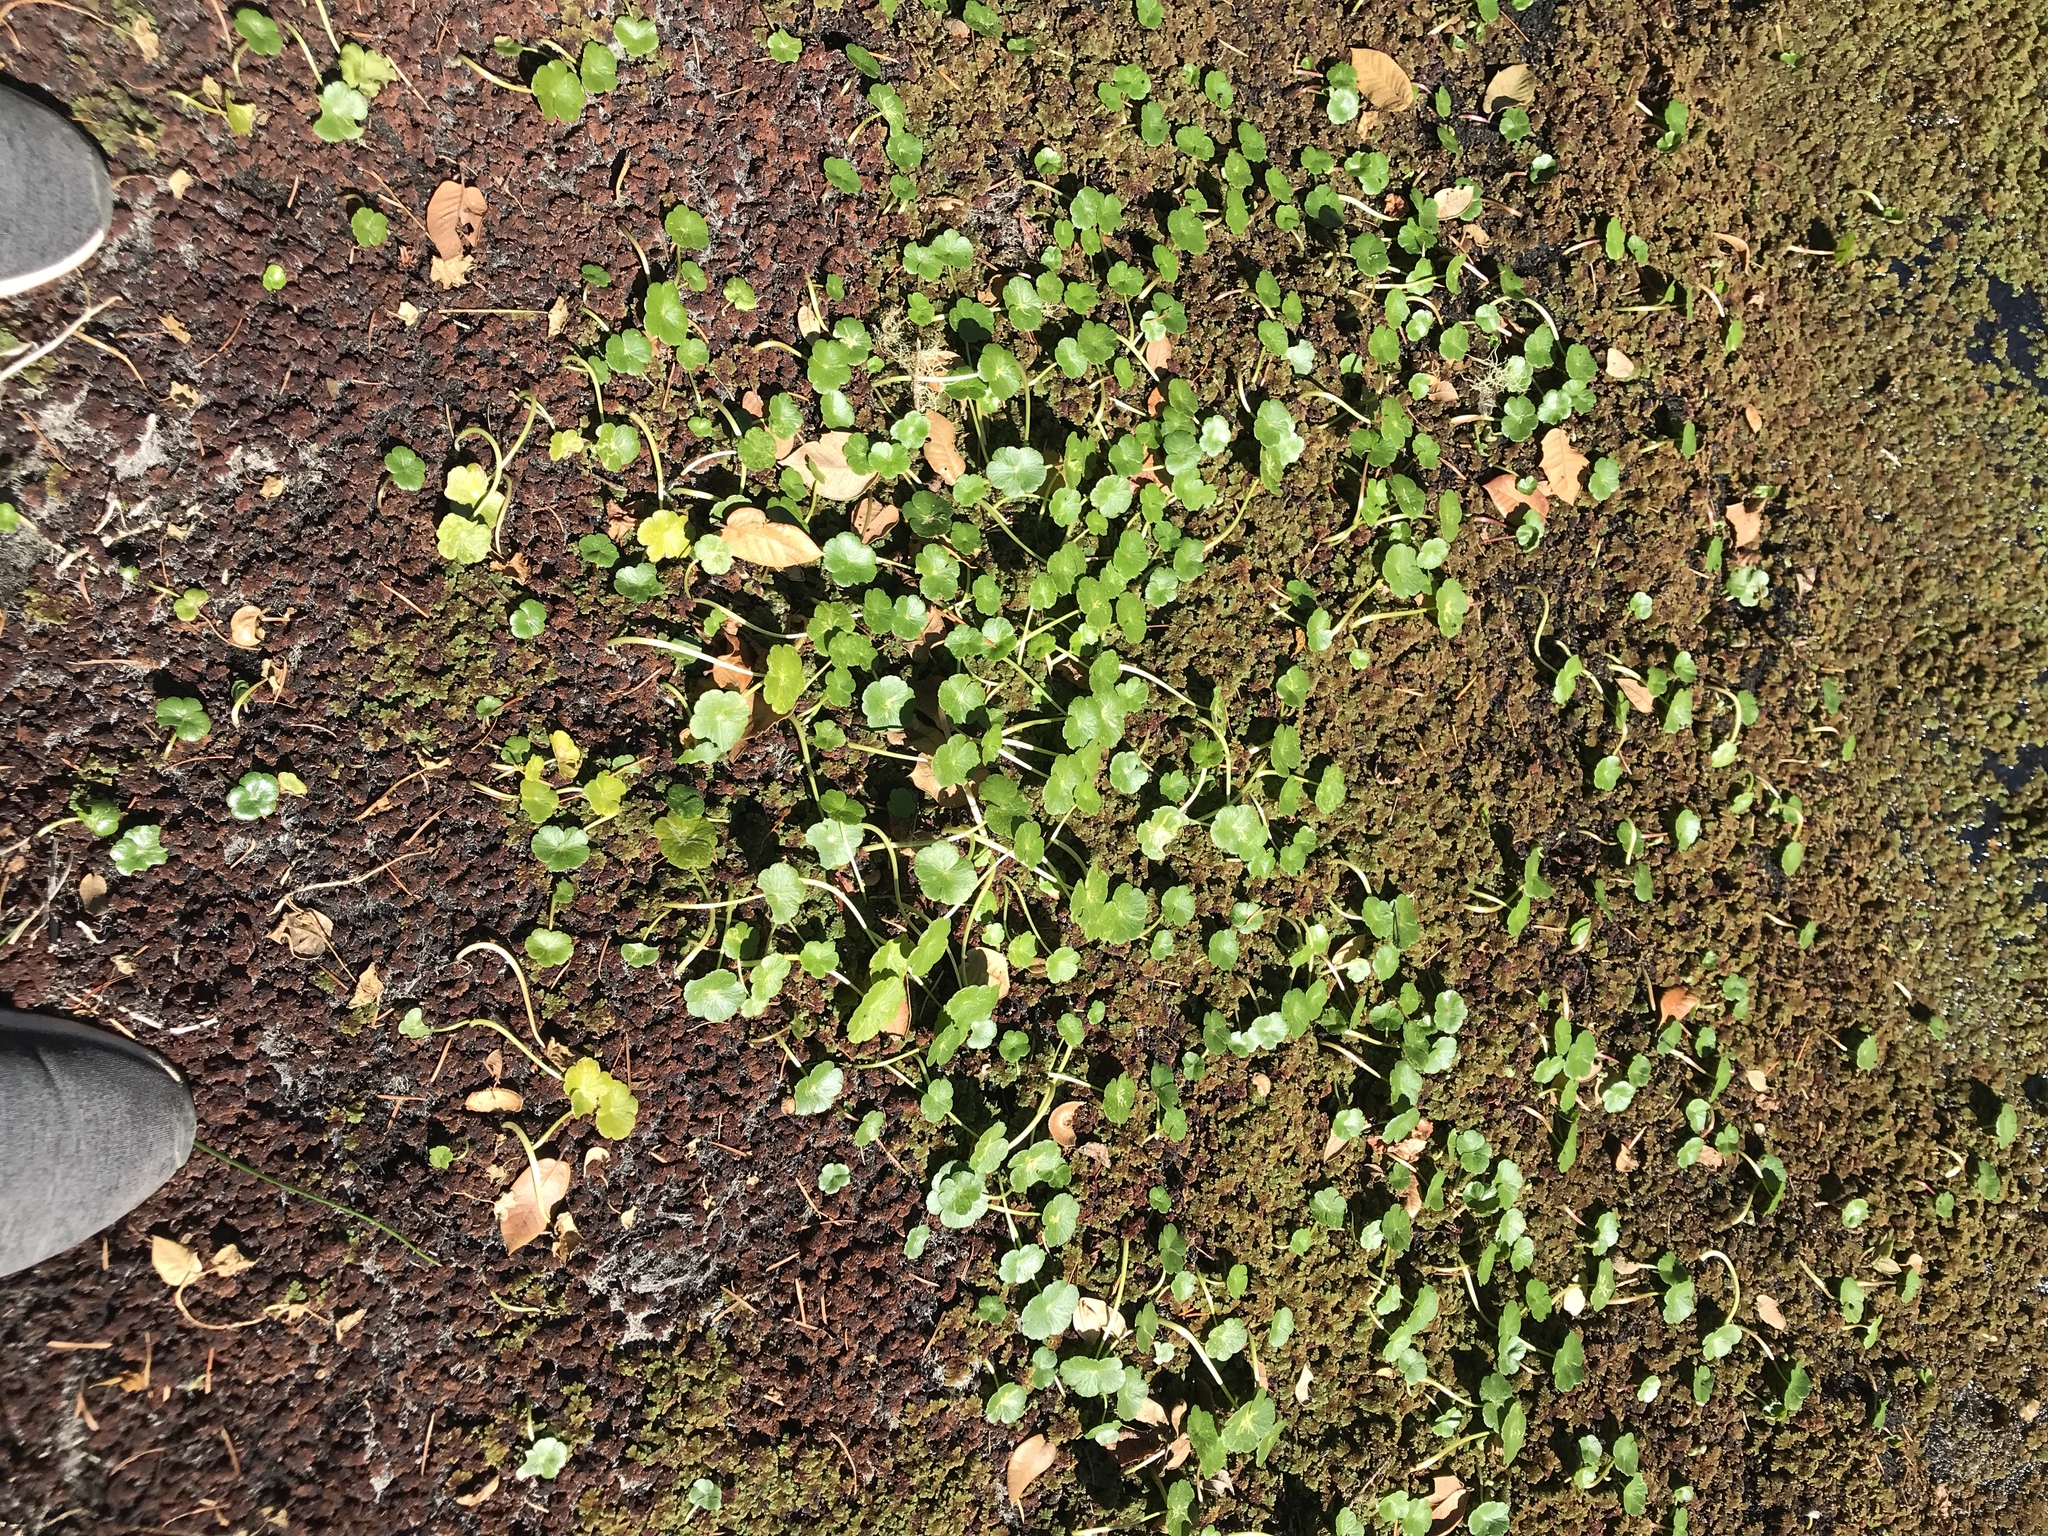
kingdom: Plantae
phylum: Tracheophyta
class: Magnoliopsida
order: Apiales
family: Araliaceae
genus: Hydrocotyle
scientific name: Hydrocotyle ranunculoides
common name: Floating pennywort
